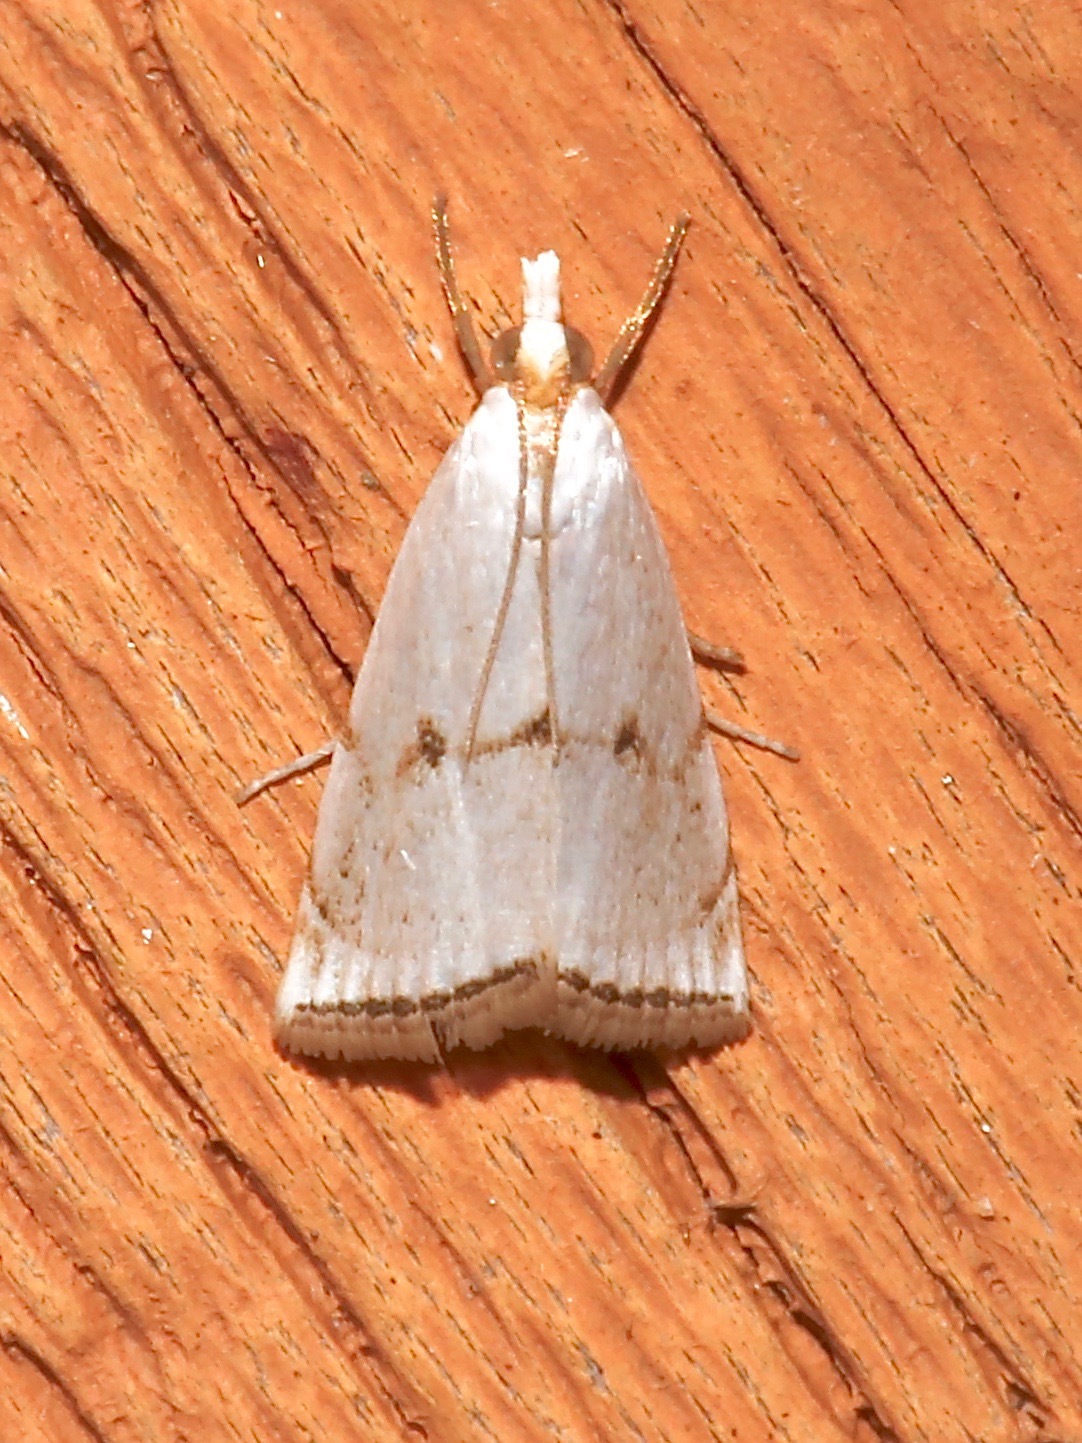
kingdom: Animalia
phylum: Arthropoda
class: Insecta
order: Lepidoptera
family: Crambidae
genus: Argyria
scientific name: Argyria pusillalis
